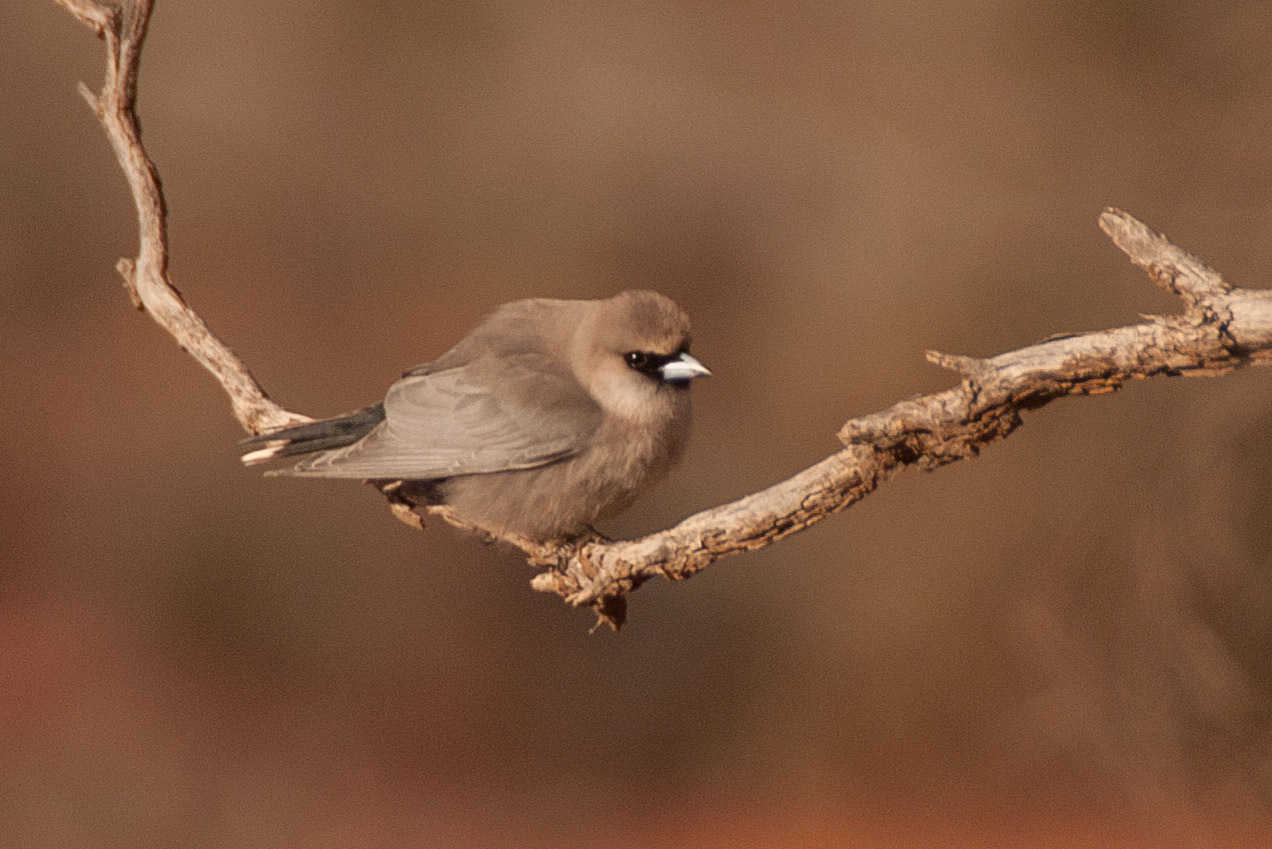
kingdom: Animalia
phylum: Chordata
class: Aves
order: Passeriformes
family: Artamidae
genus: Artamus
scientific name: Artamus cinereus
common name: Black-faced woodswallow
